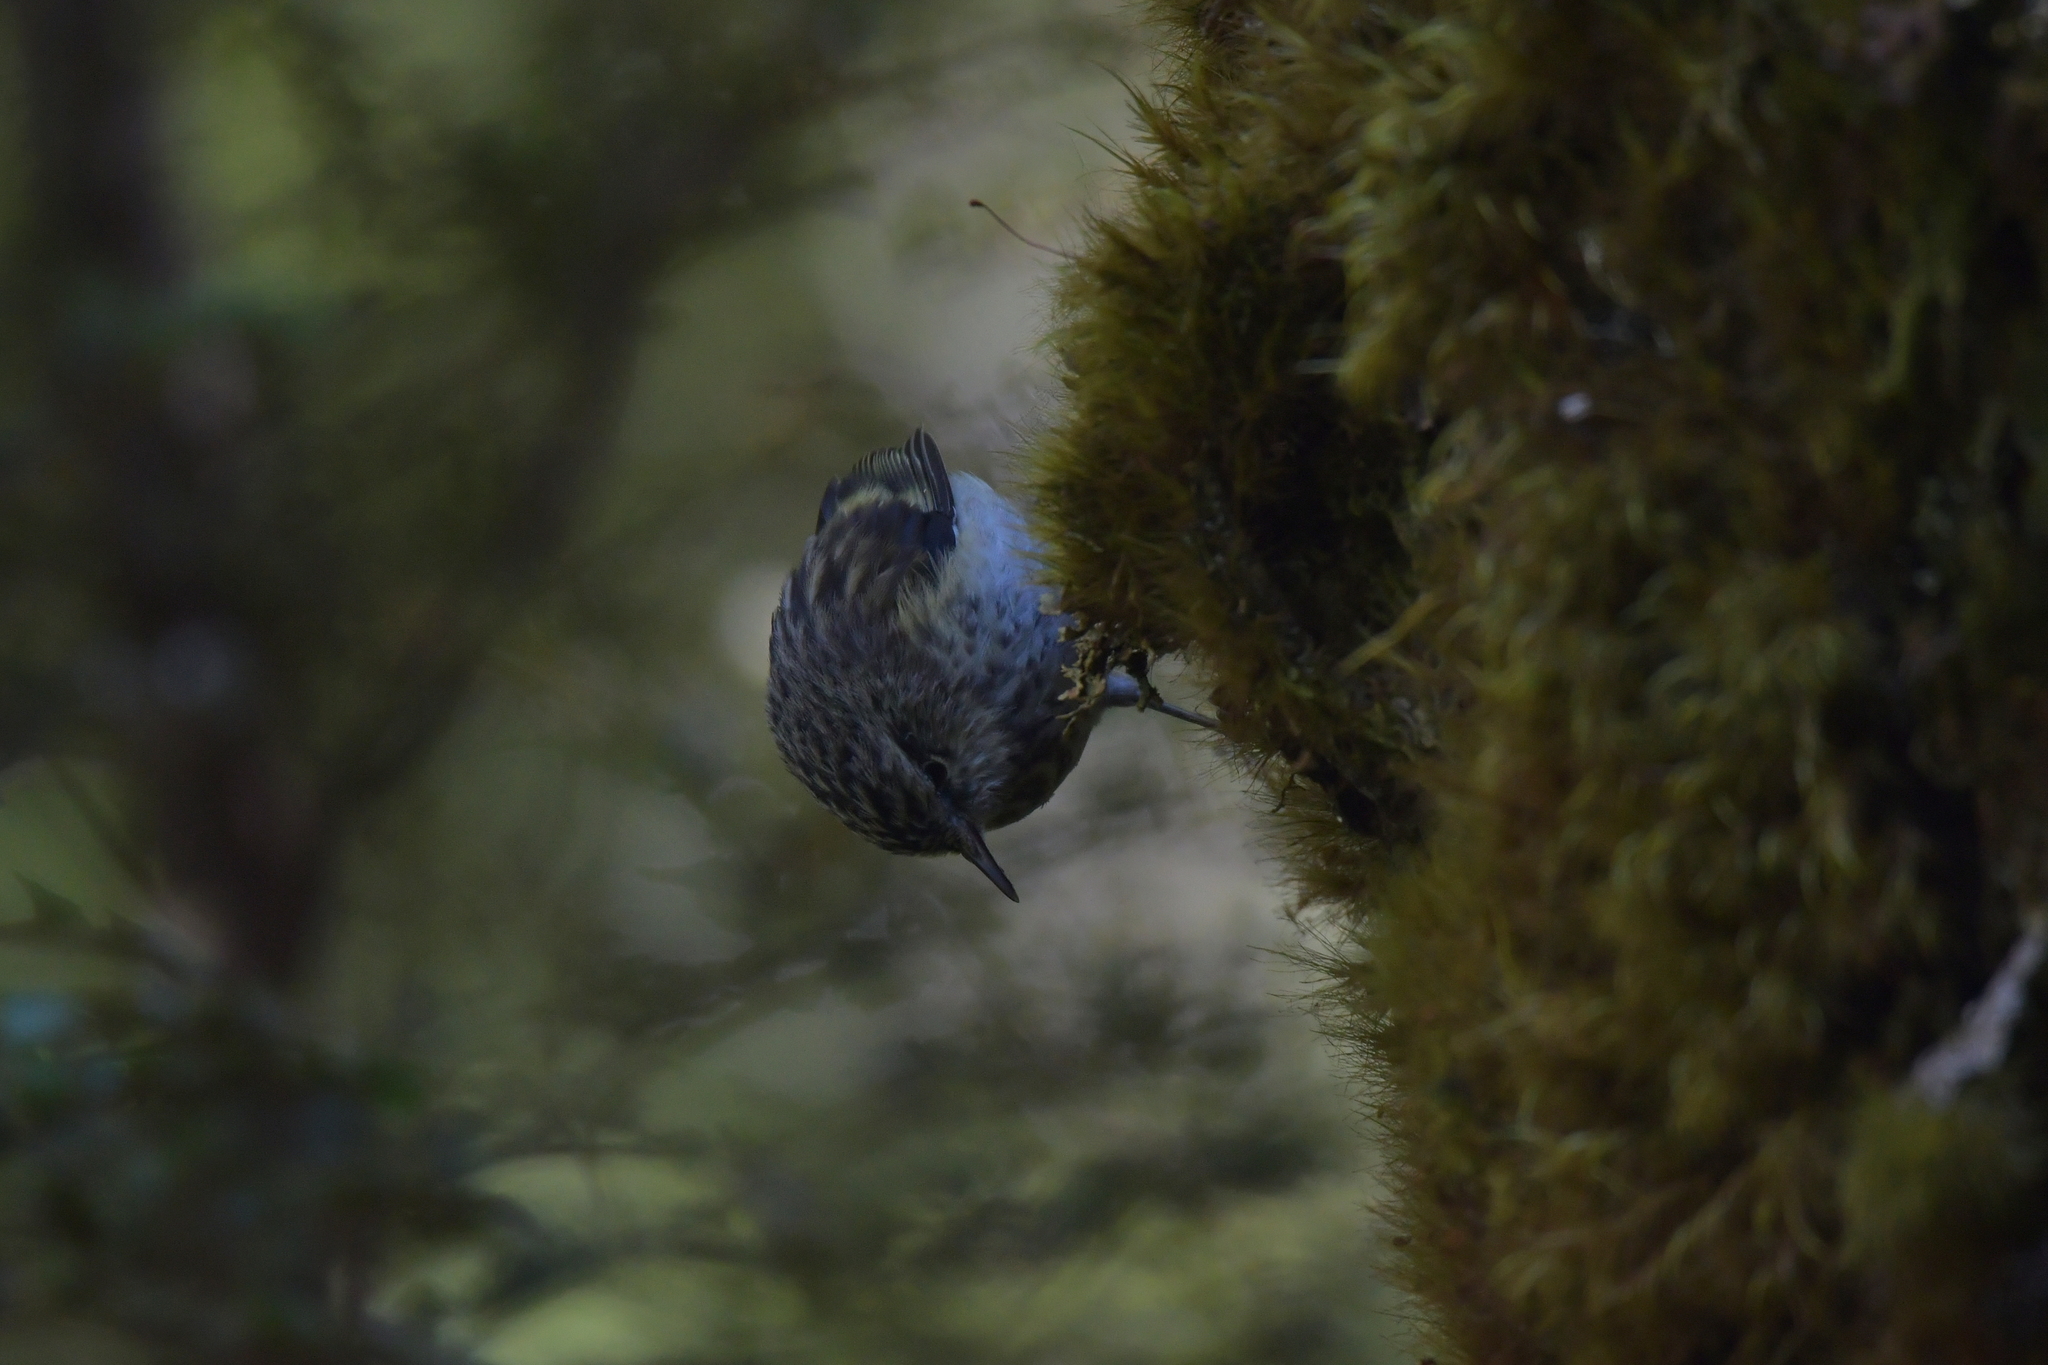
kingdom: Animalia
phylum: Chordata
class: Aves
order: Passeriformes
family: Acanthisittidae
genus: Acanthisitta
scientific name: Acanthisitta chloris
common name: Rifleman
